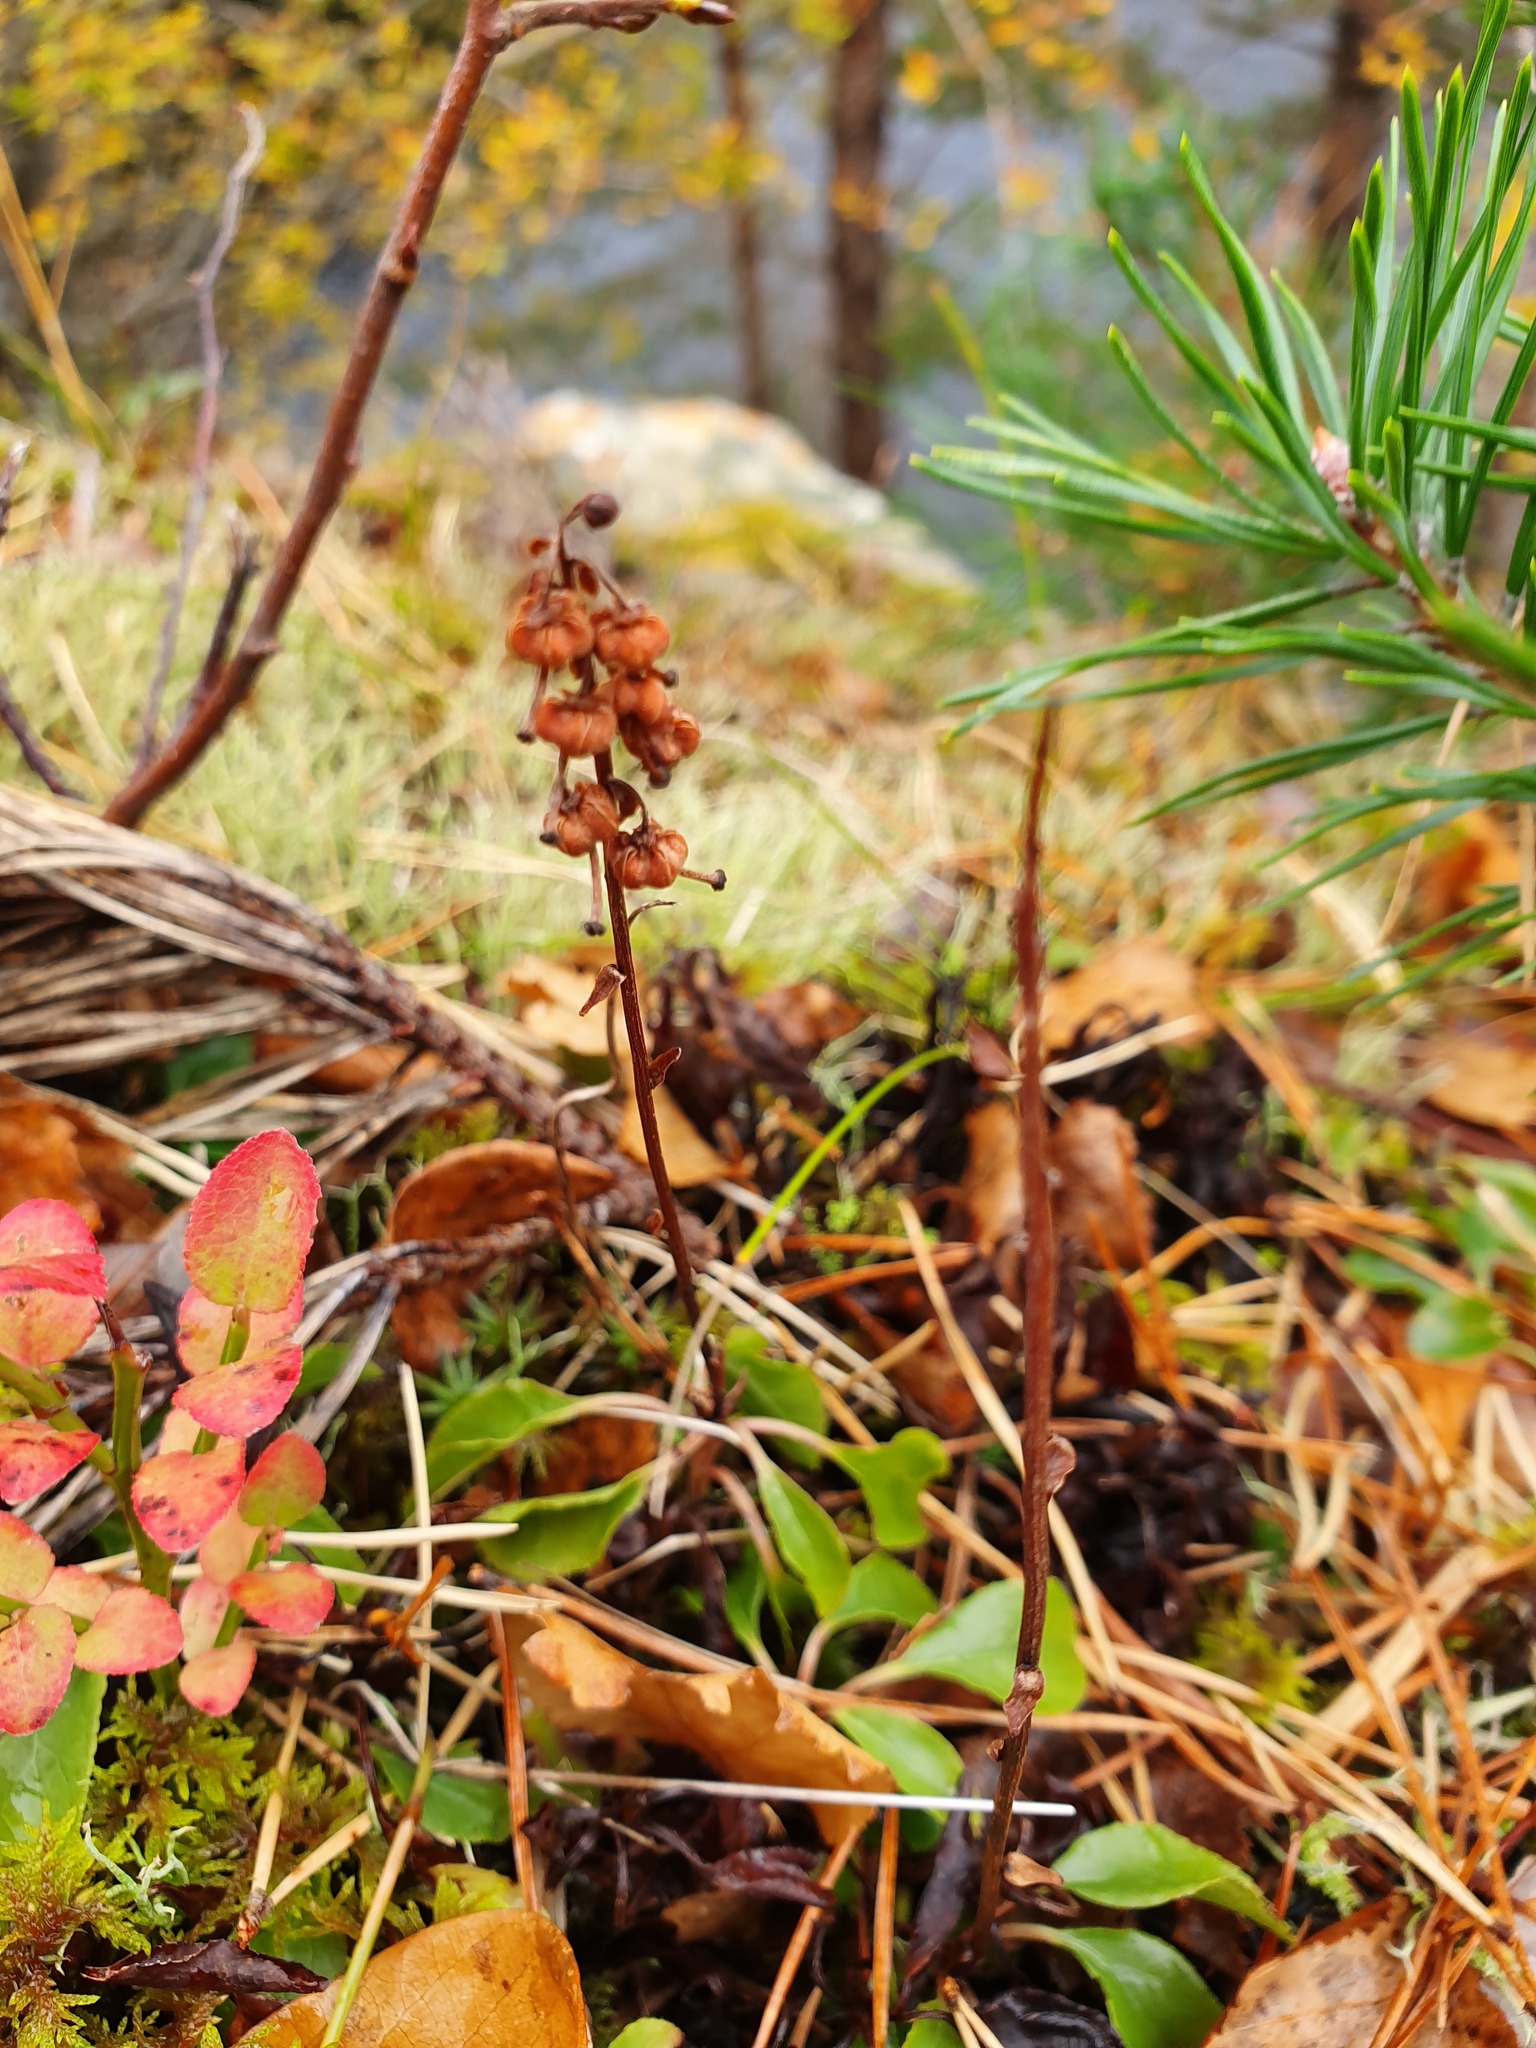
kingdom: Plantae
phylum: Tracheophyta
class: Magnoliopsida
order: Ericales
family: Ericaceae
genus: Orthilia
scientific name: Orthilia secunda
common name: One-sided orthilia
